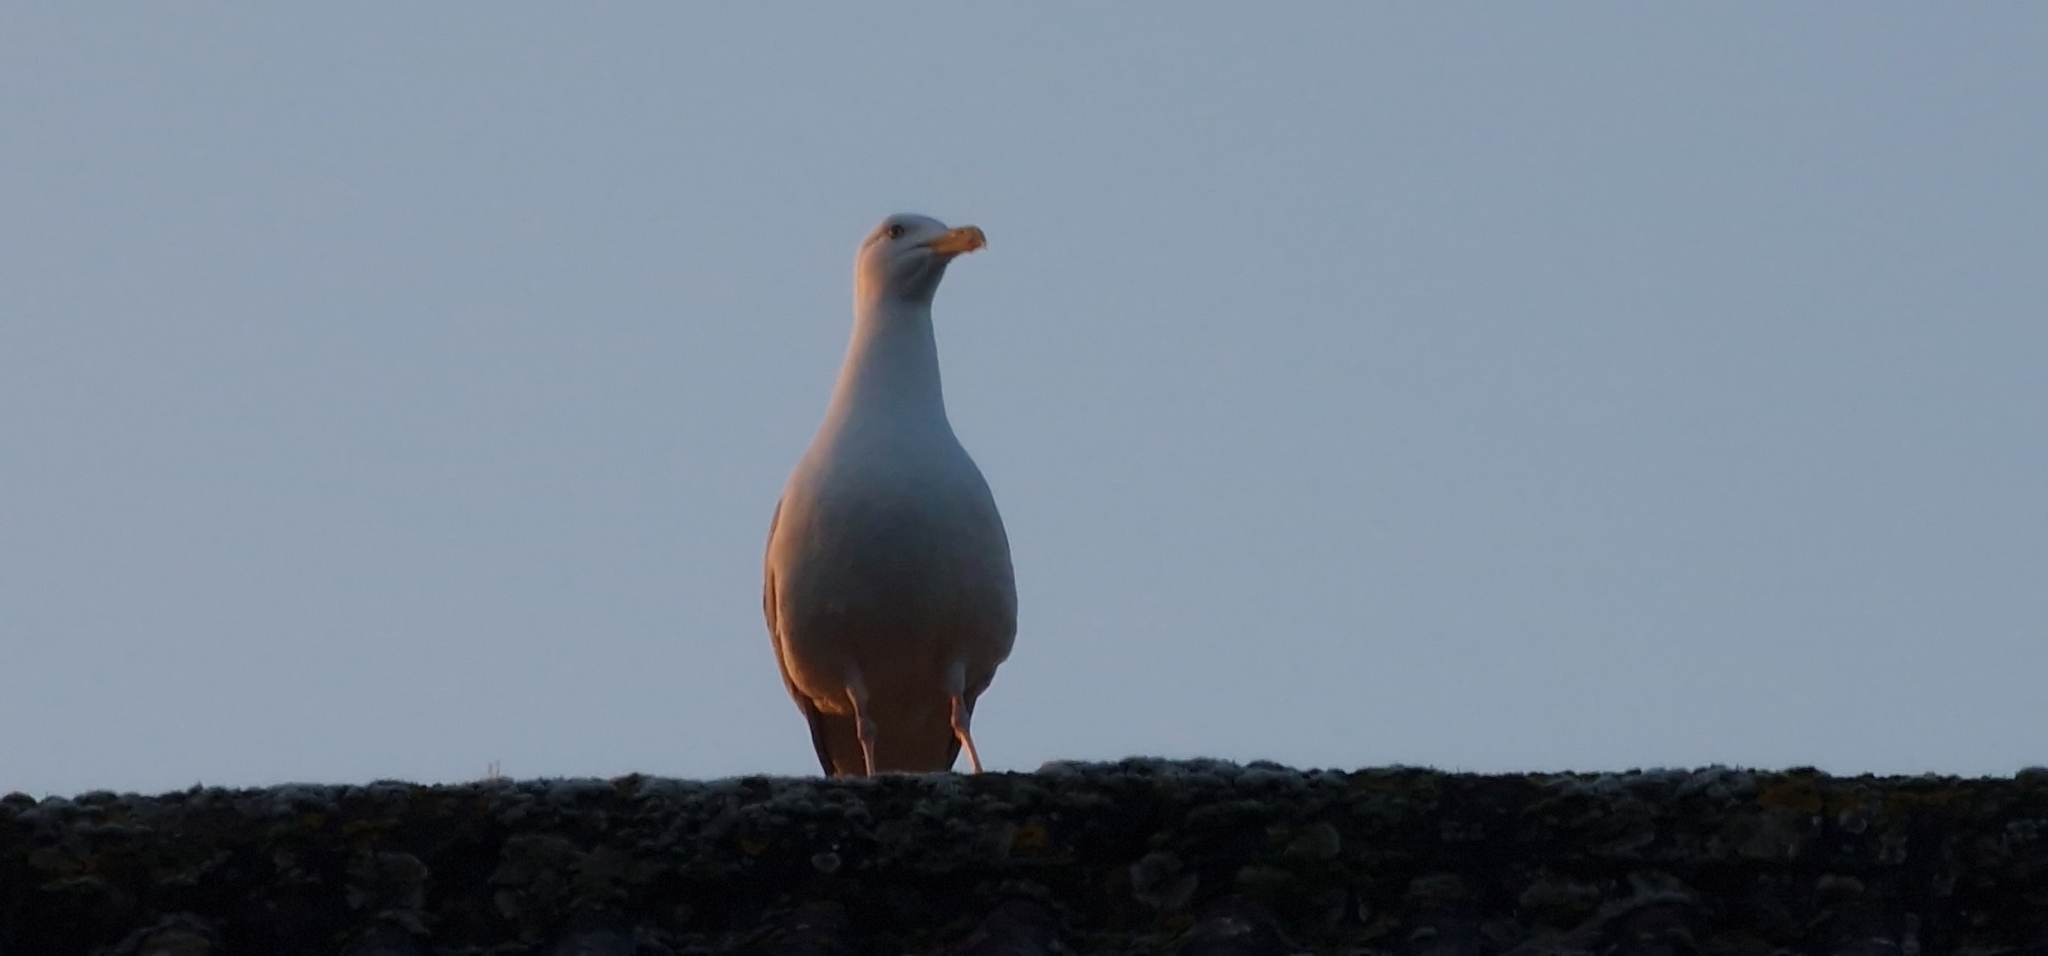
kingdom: Animalia
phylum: Chordata
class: Aves
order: Charadriiformes
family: Laridae
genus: Larus
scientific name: Larus argentatus
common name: Herring gull
